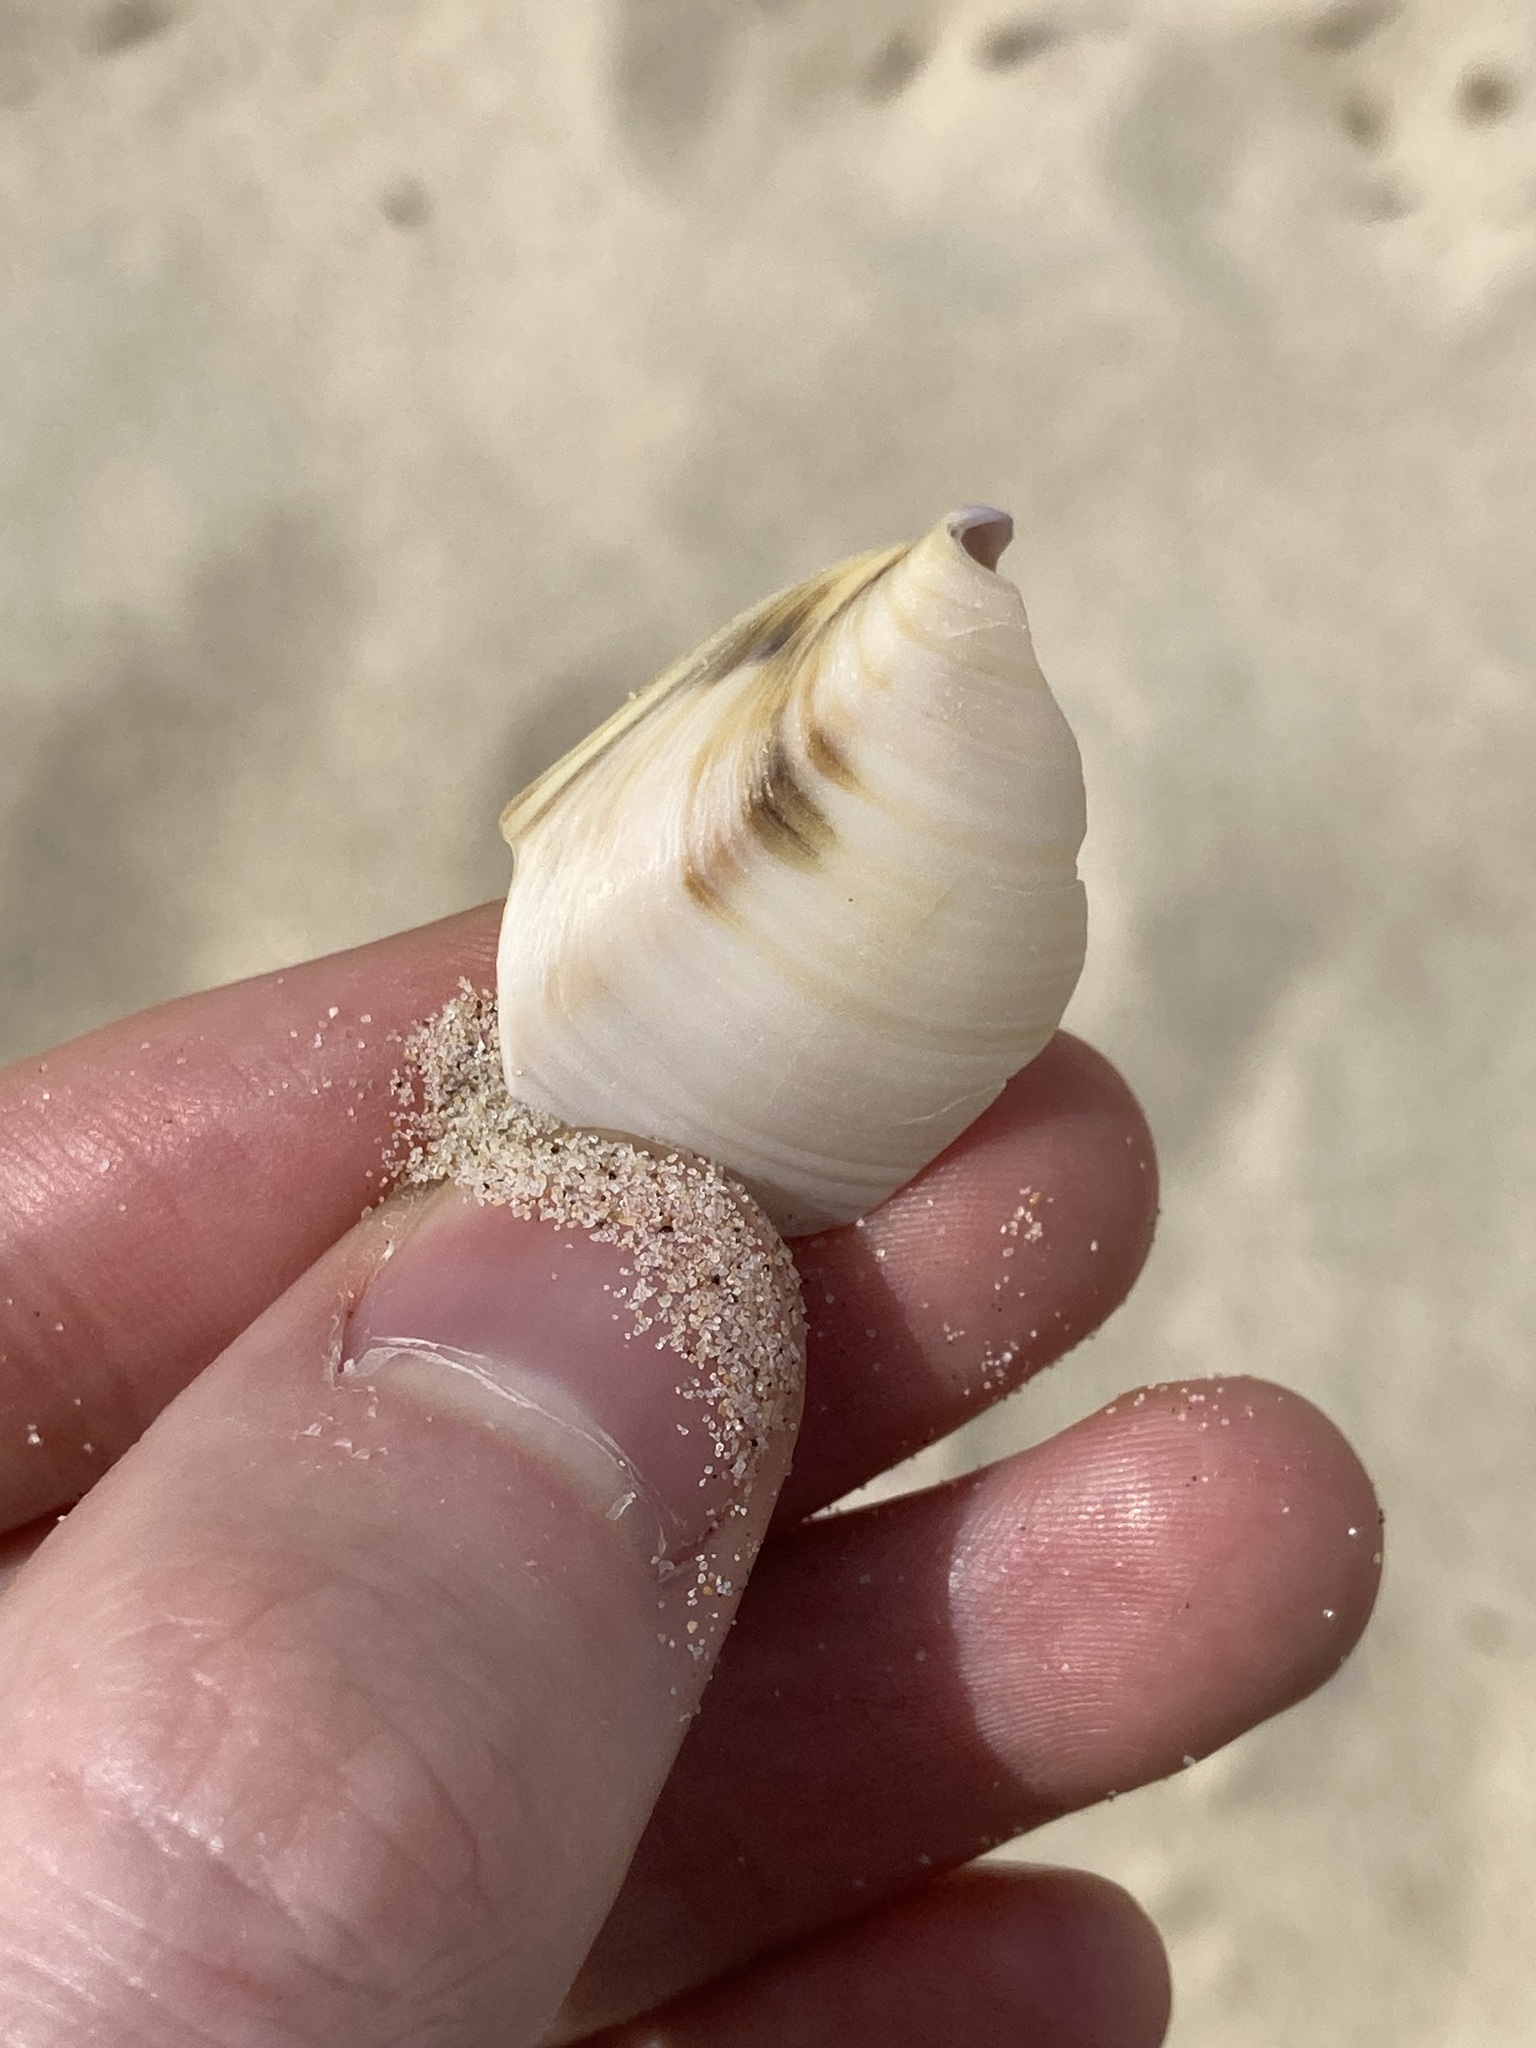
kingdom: Animalia
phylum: Mollusca
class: Bivalvia
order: Venerida
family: Mactridae
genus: Austromactra
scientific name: Austromactra rufescens
